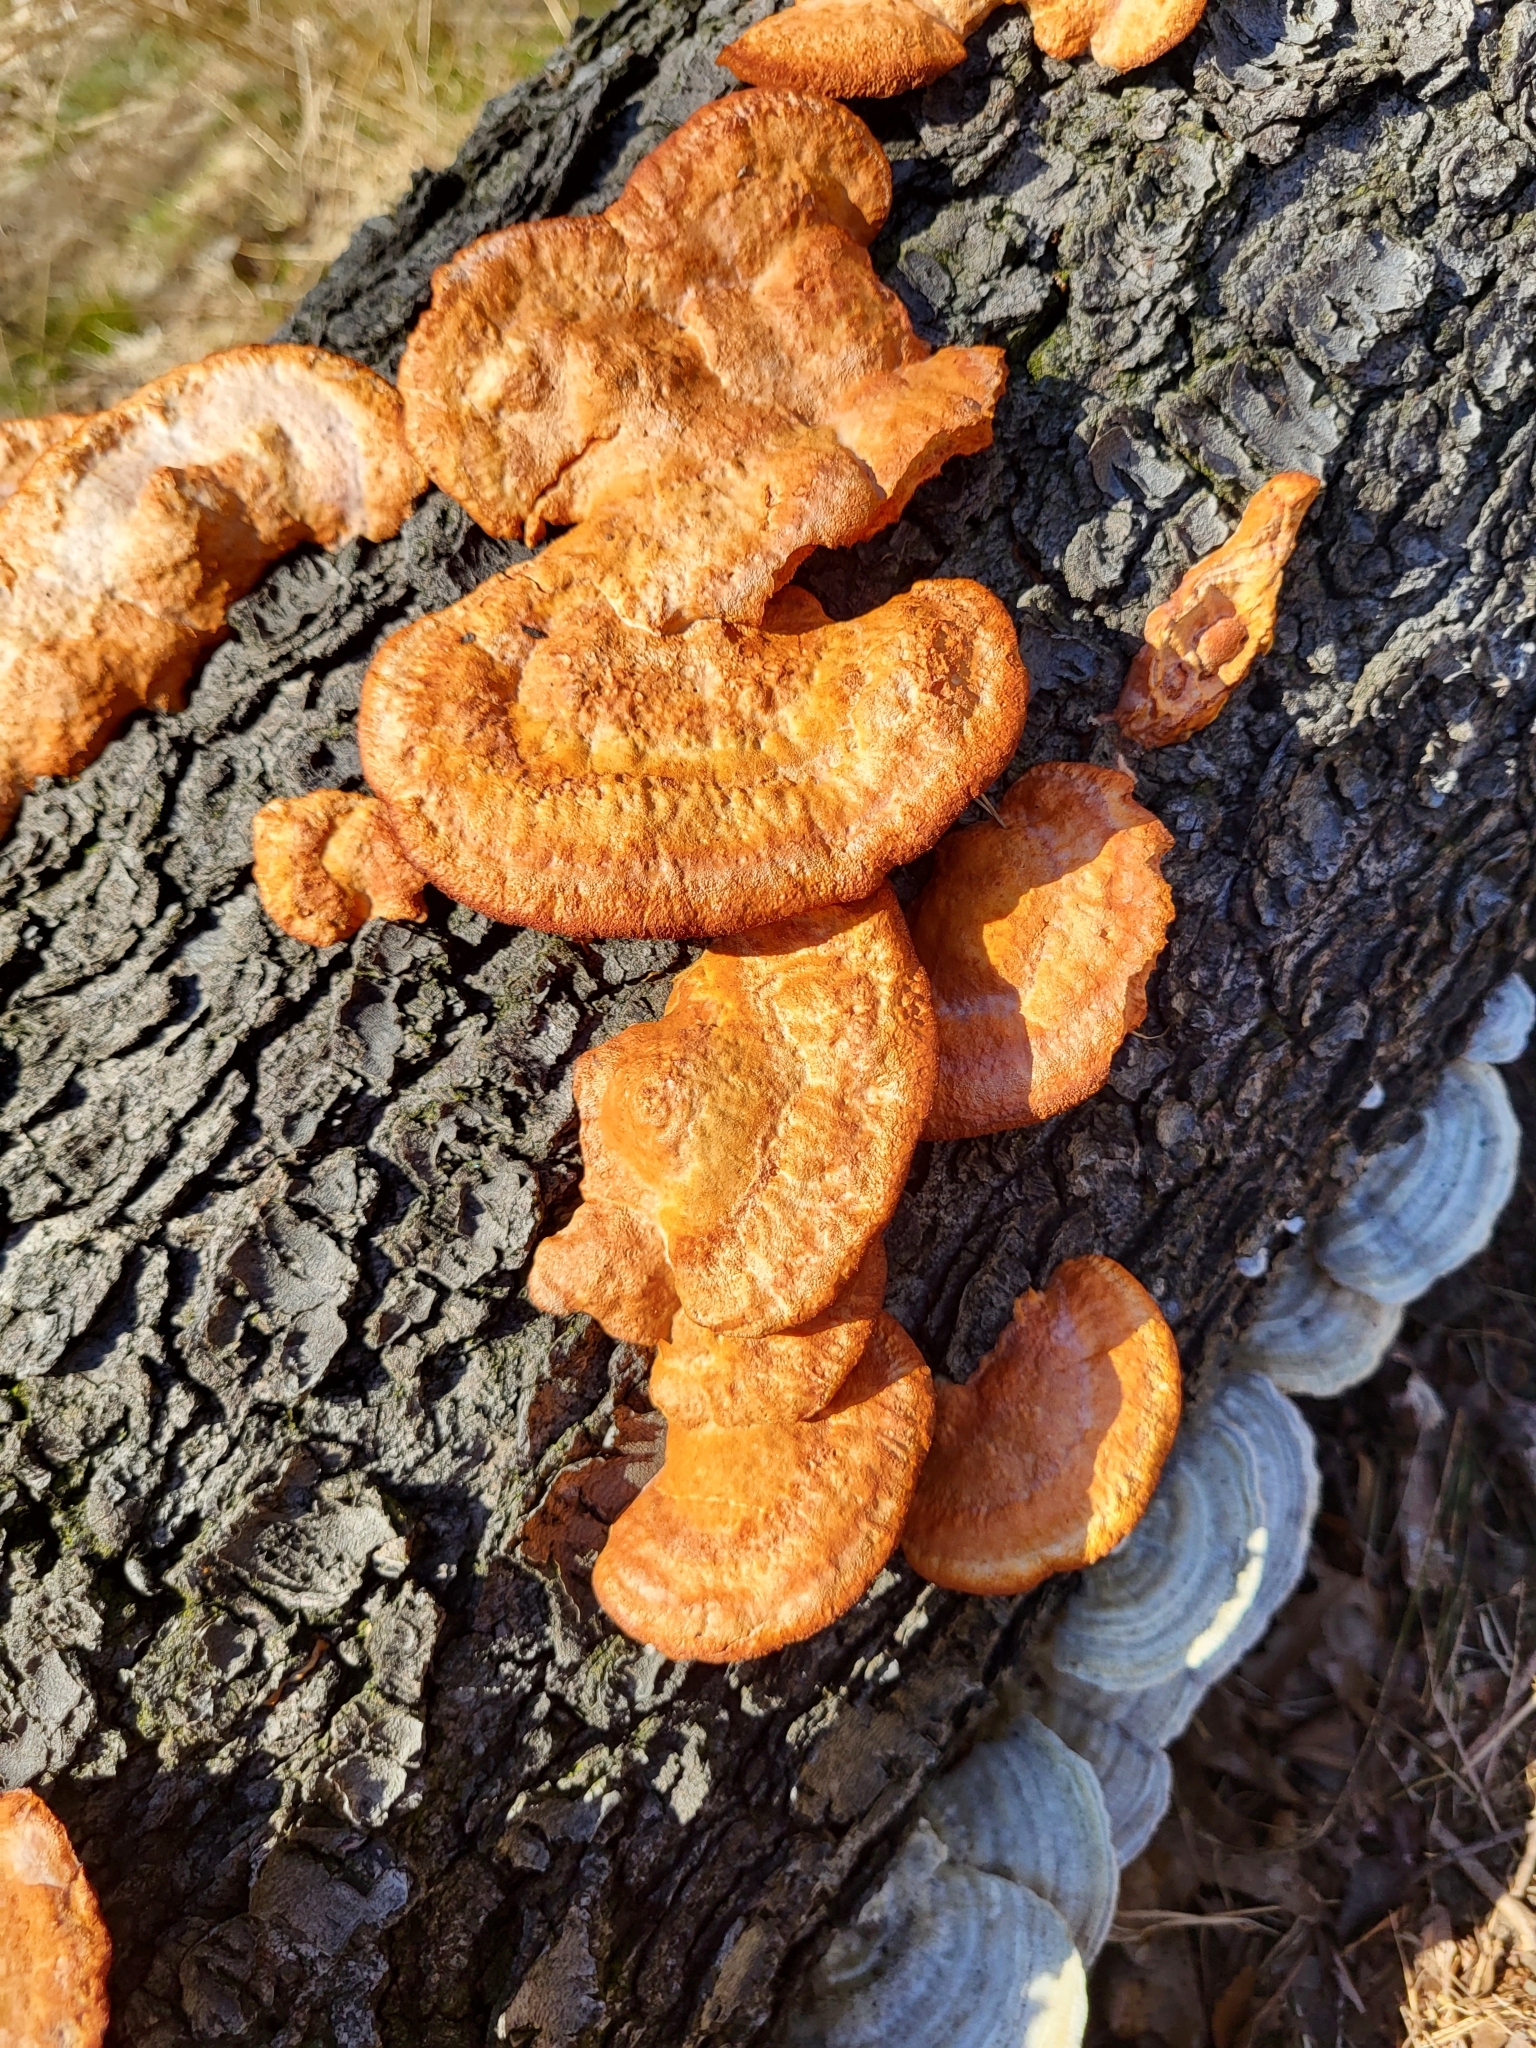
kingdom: Fungi
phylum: Basidiomycota
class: Agaricomycetes
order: Polyporales
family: Polyporaceae
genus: Trametes
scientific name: Trametes cinnabarina
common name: Northern cinnabar polypore
